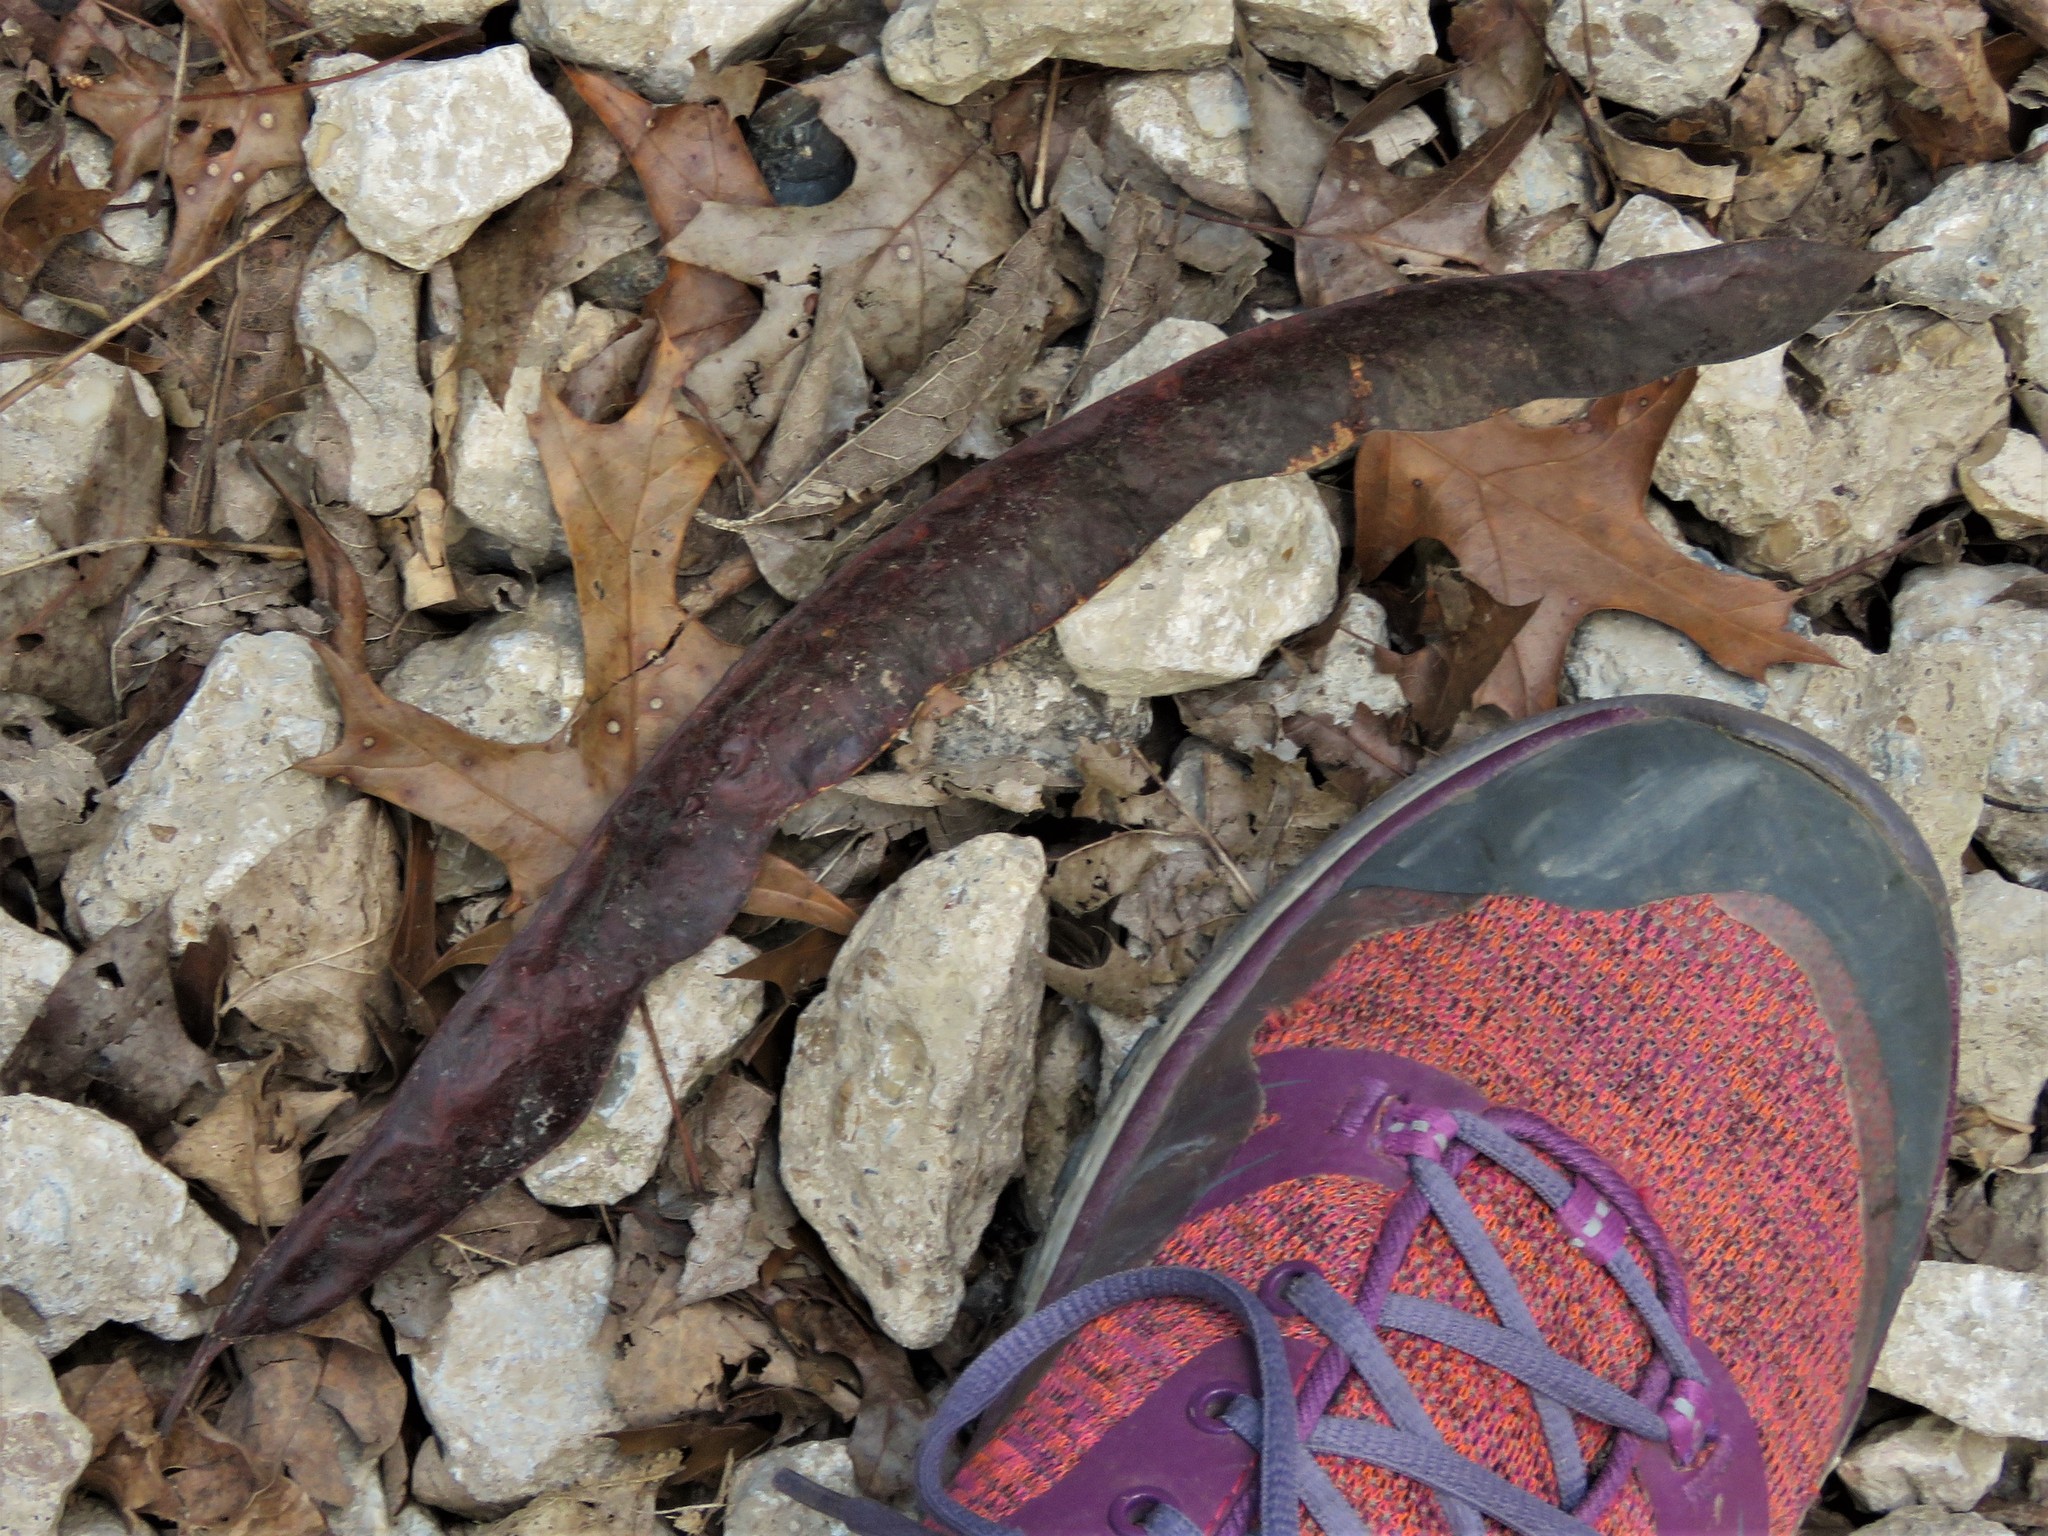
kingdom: Plantae
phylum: Tracheophyta
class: Magnoliopsida
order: Fabales
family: Fabaceae
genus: Gleditsia
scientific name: Gleditsia triacanthos
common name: Common honeylocust
